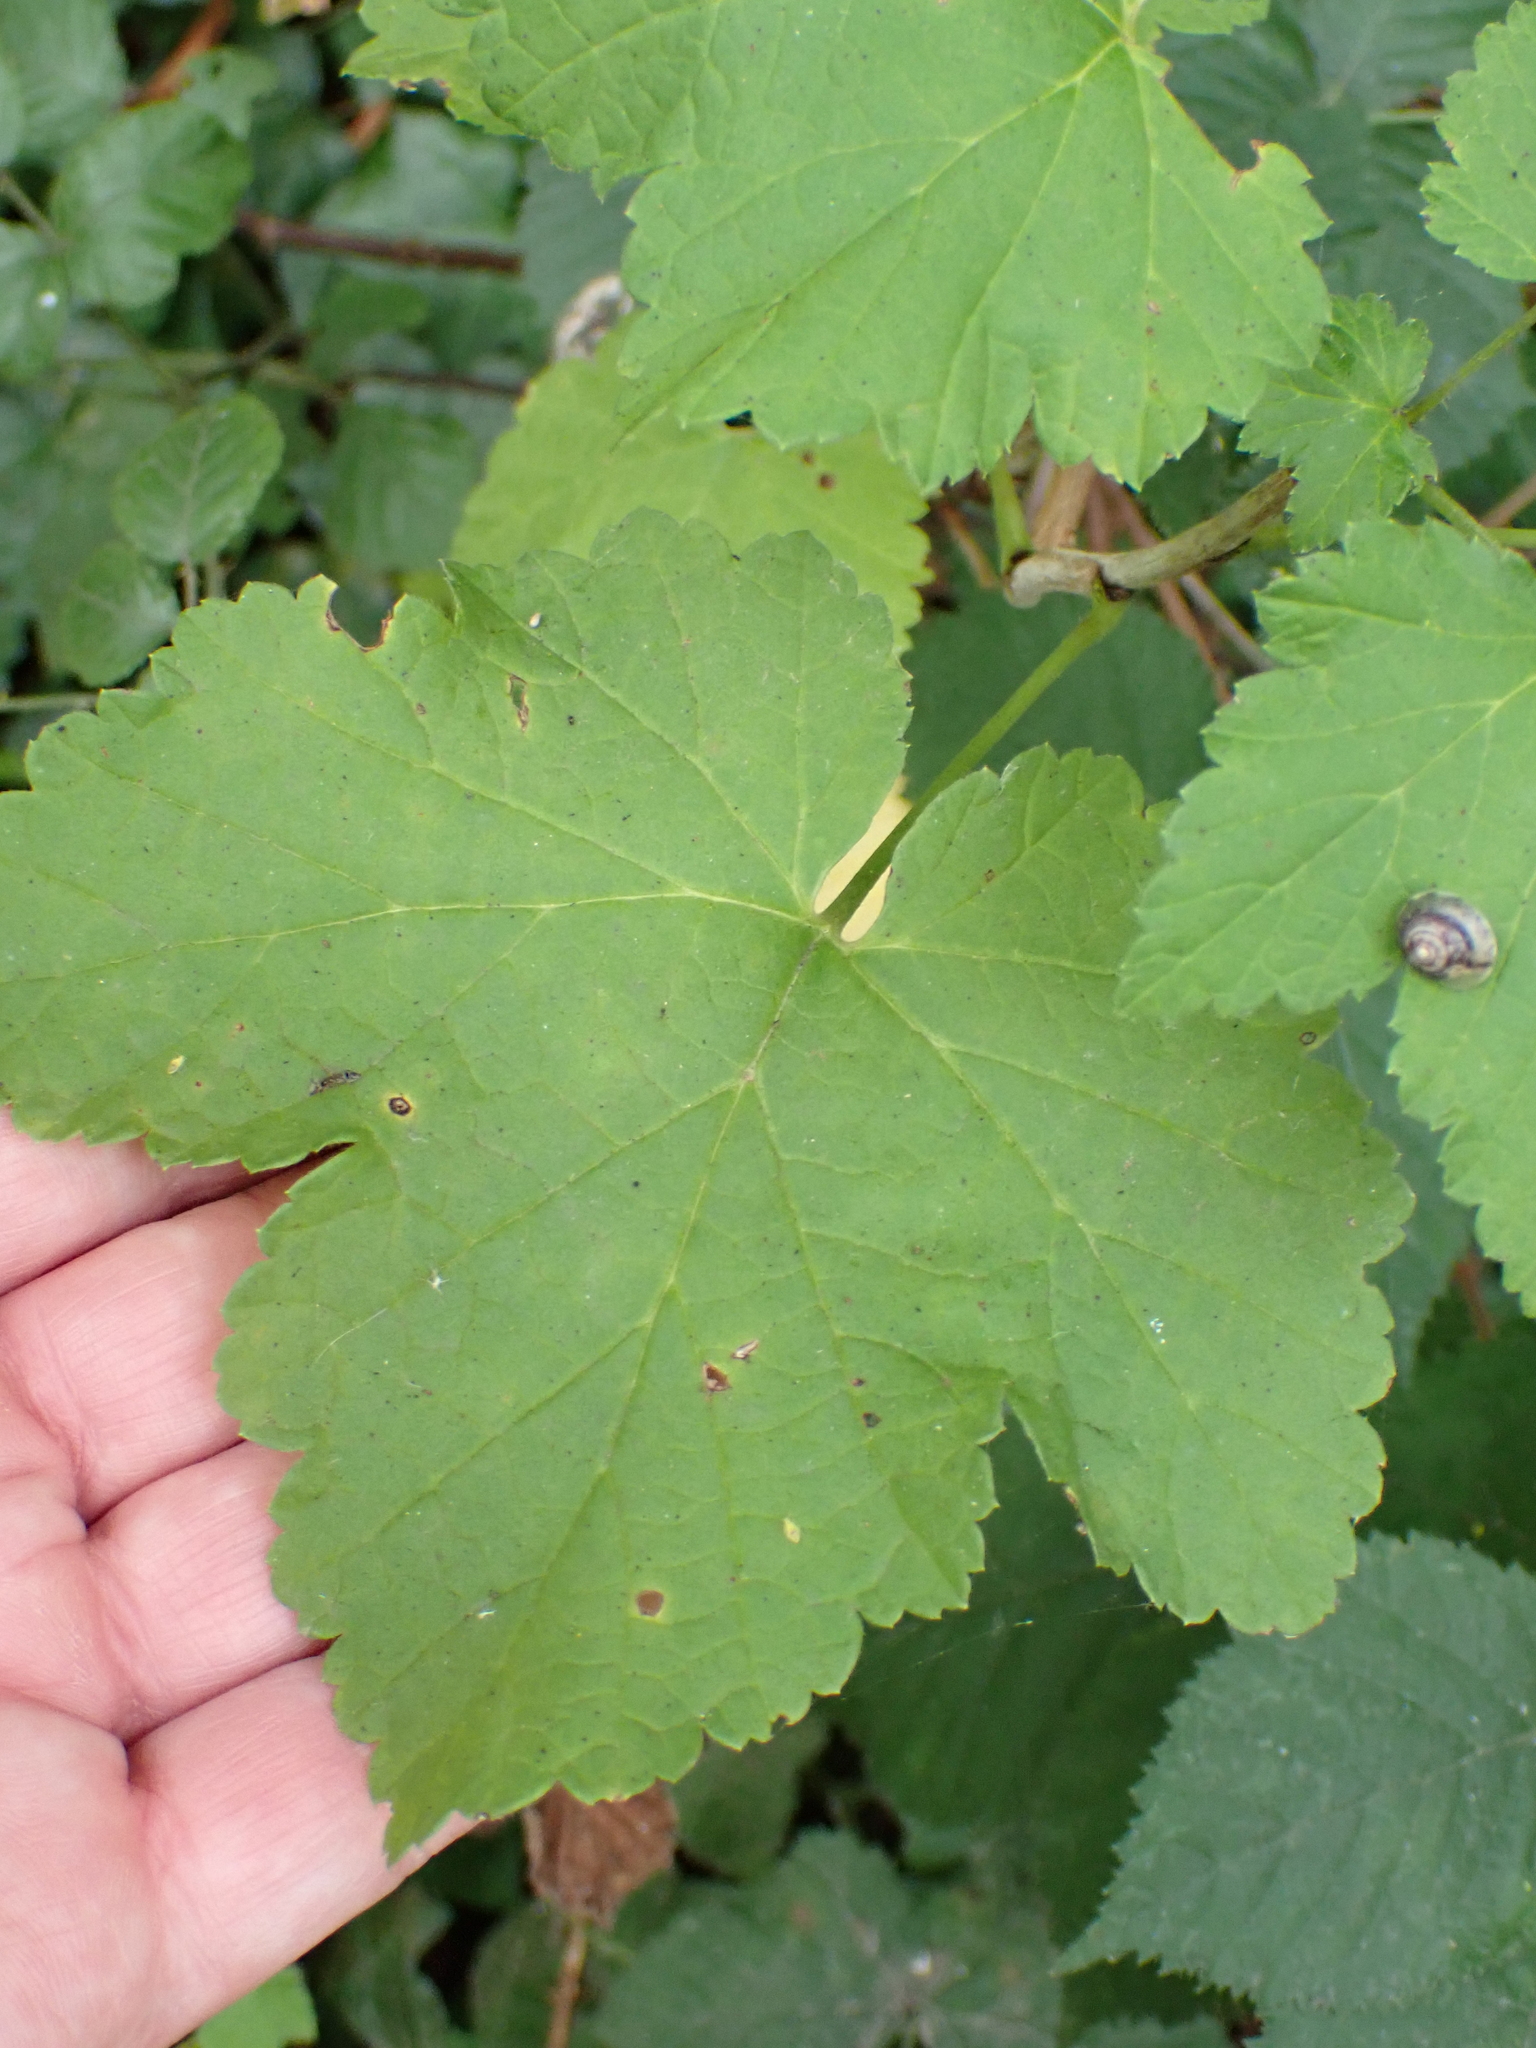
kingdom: Plantae
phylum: Tracheophyta
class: Magnoliopsida
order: Saxifragales
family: Grossulariaceae
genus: Ribes
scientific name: Ribes rubrum
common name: Red currant
